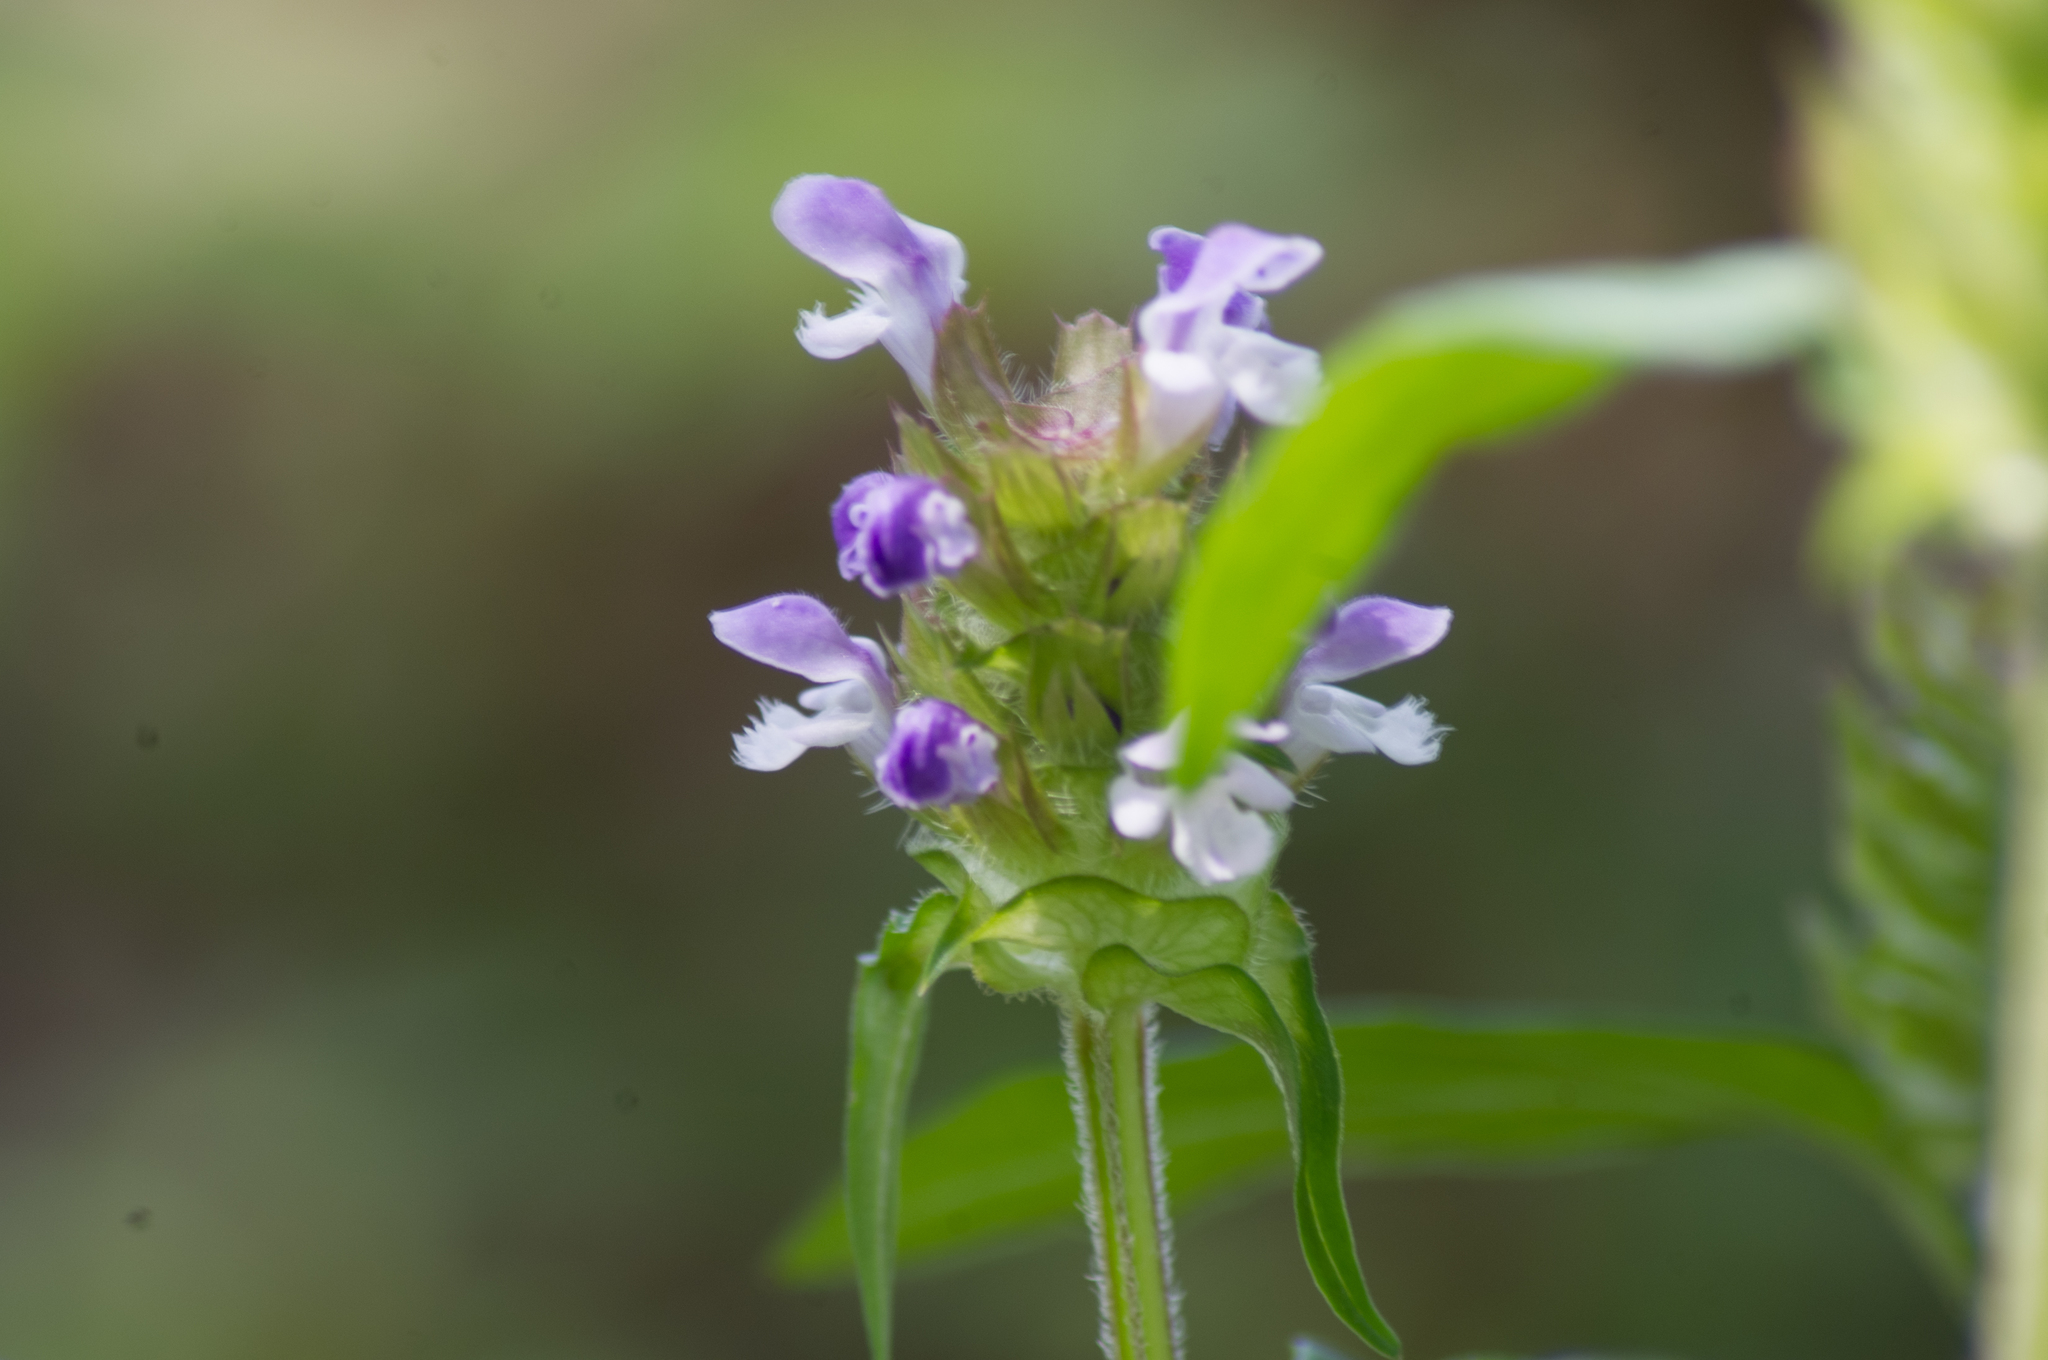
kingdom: Plantae
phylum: Tracheophyta
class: Magnoliopsida
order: Lamiales
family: Lamiaceae
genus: Prunella
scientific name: Prunella vulgaris
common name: Heal-all
